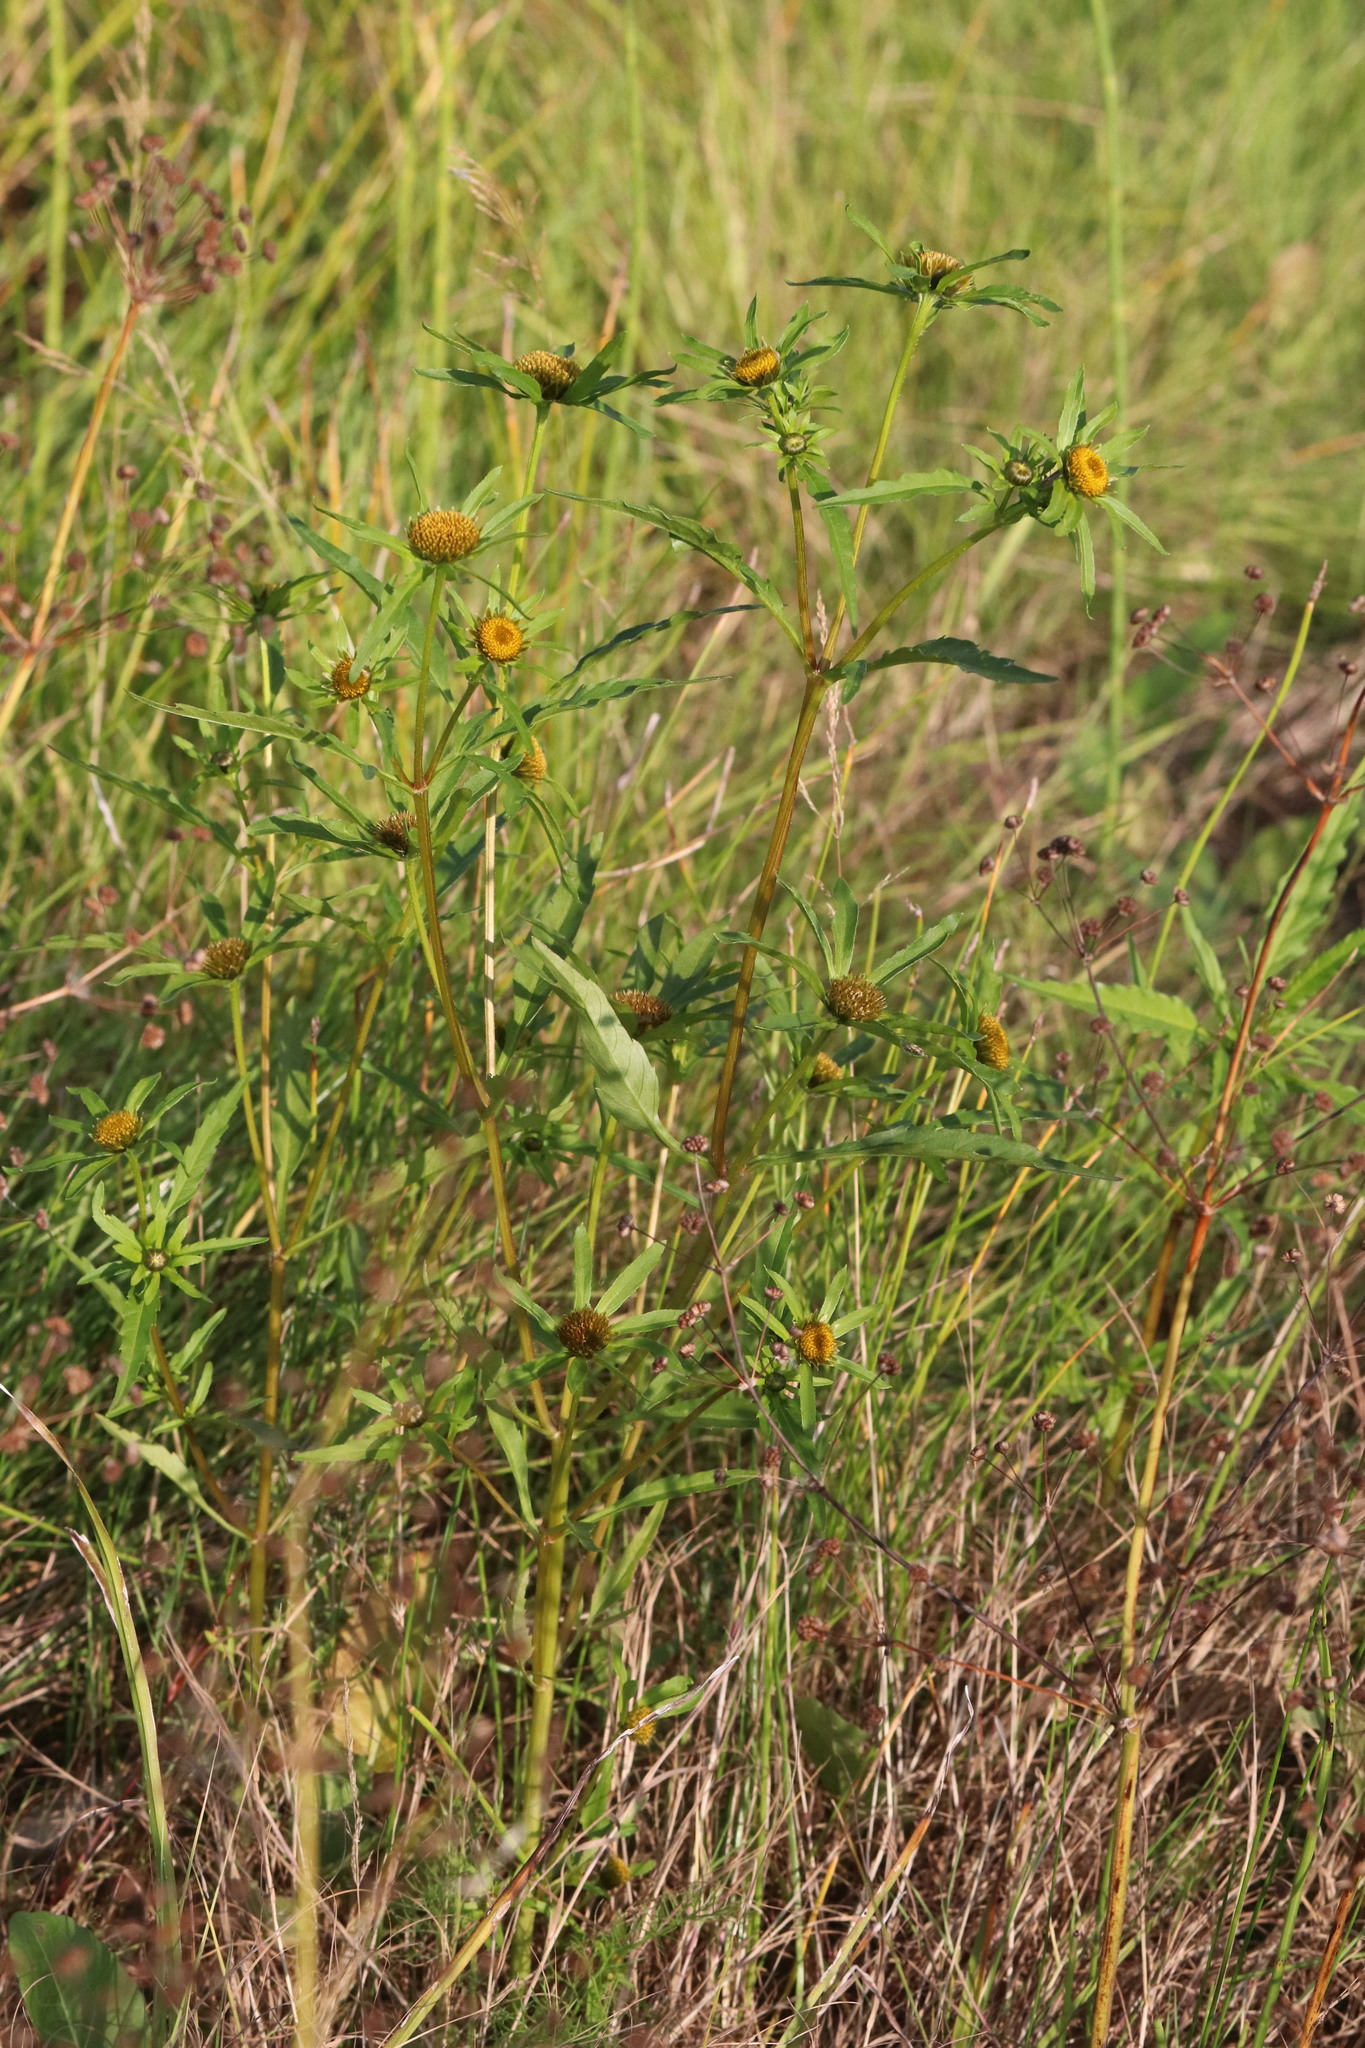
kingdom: Plantae
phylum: Tracheophyta
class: Magnoliopsida
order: Asterales
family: Asteraceae
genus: Bidens
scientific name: Bidens radiata
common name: Radiating bur-marigold
